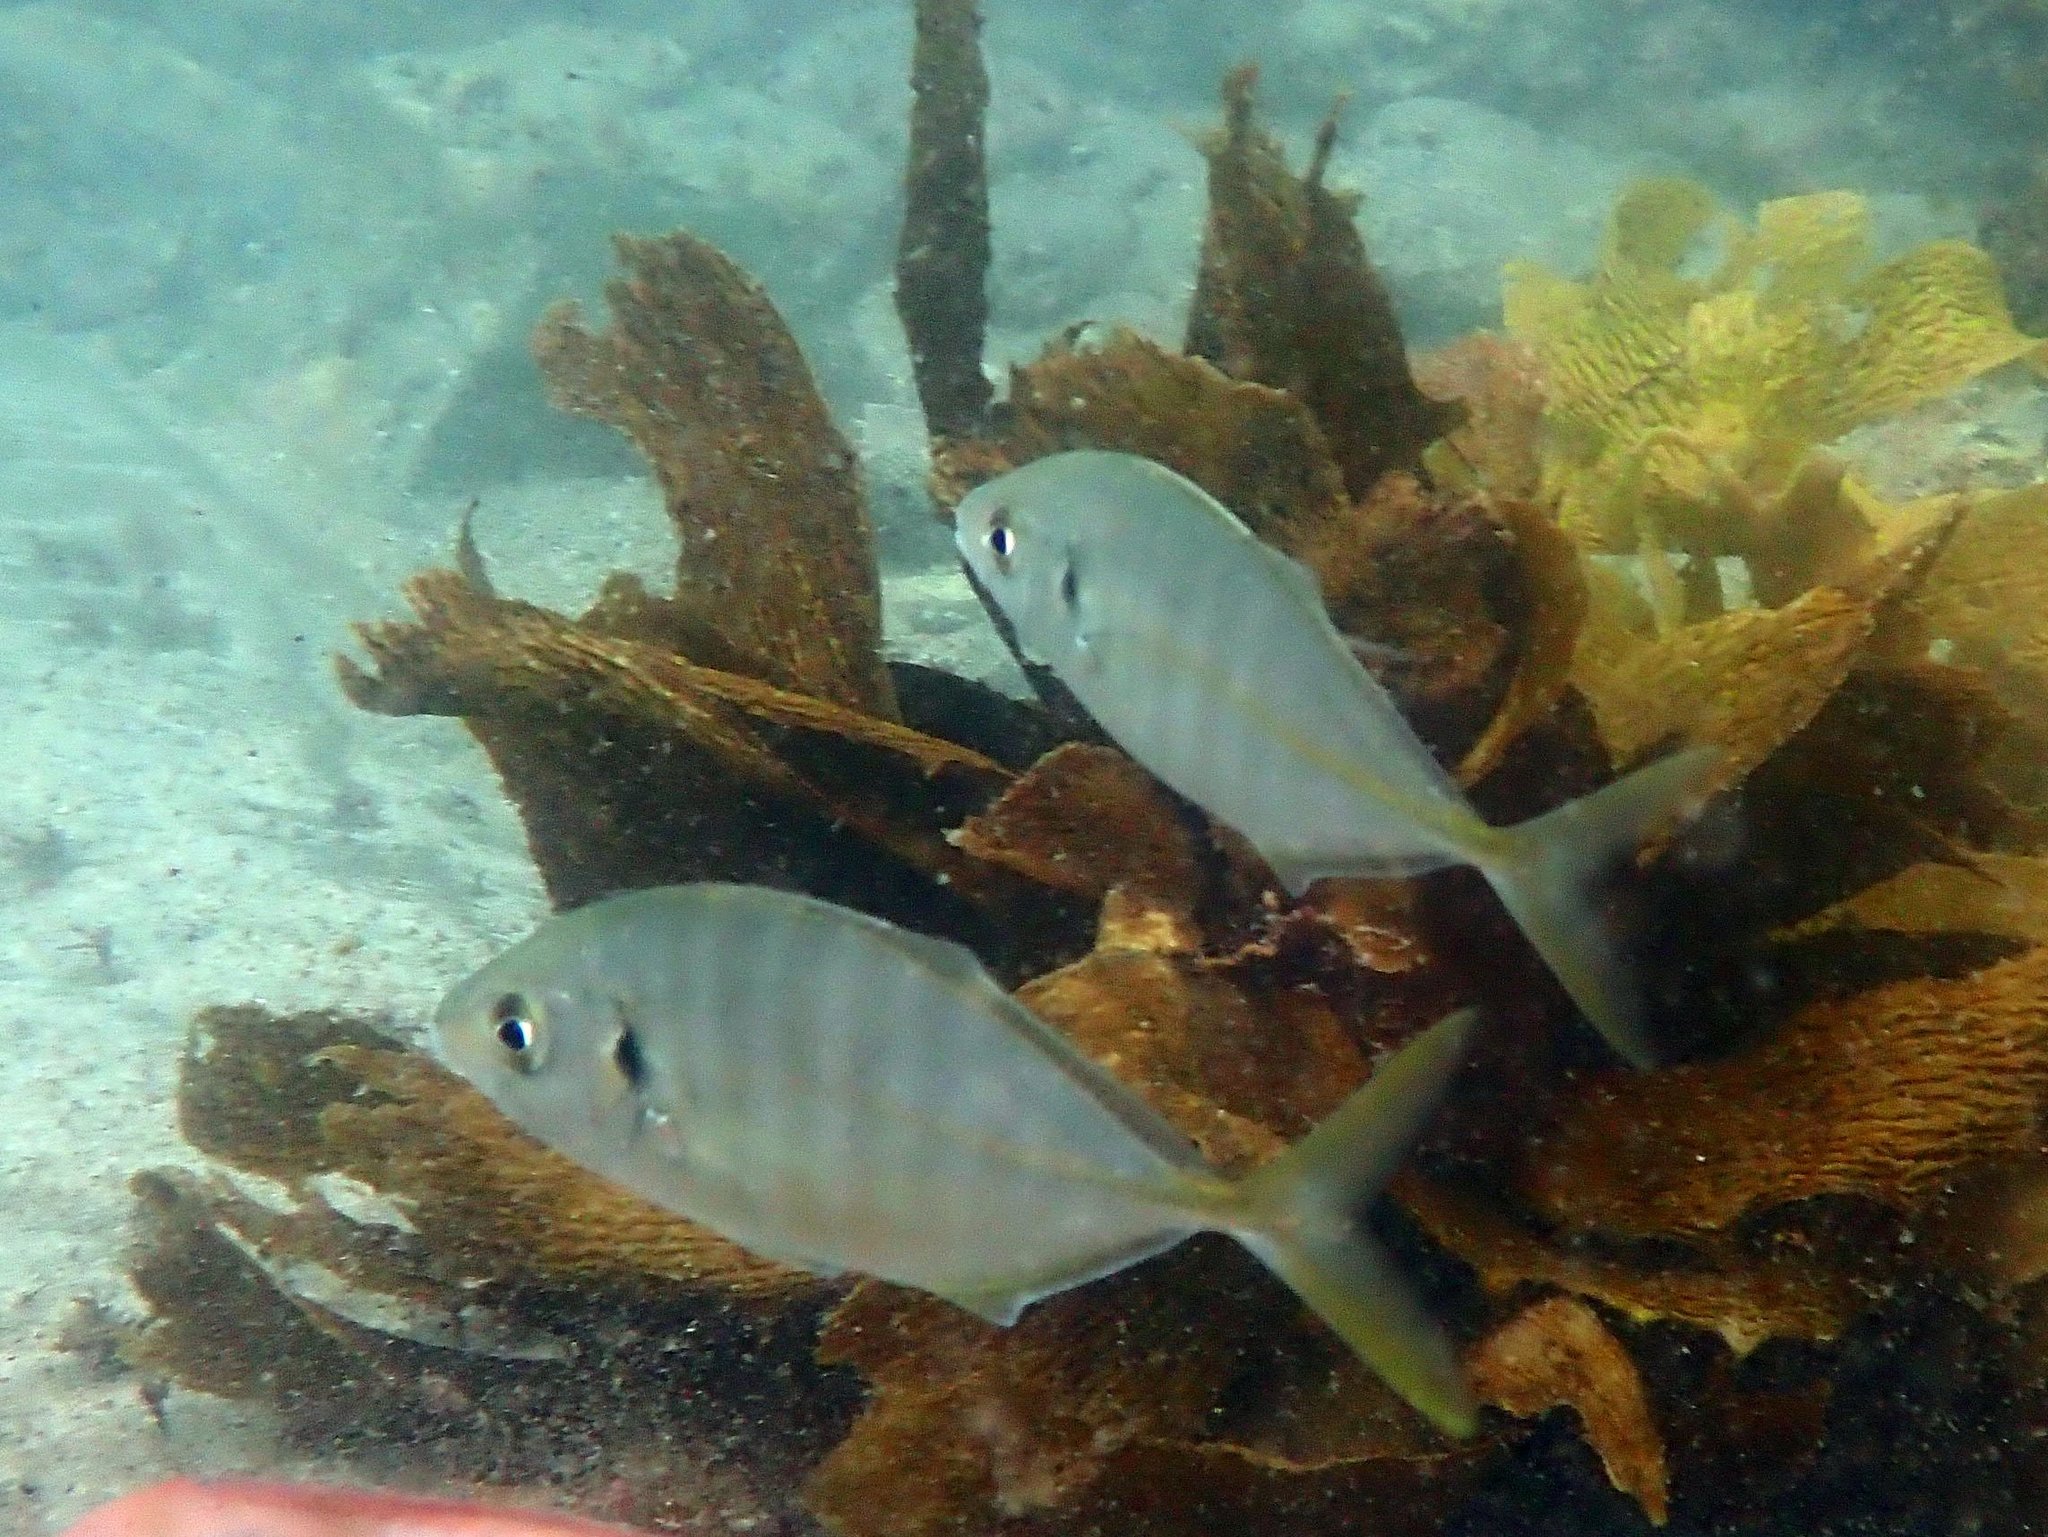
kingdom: Animalia
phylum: Chordata
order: Perciformes
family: Carangidae
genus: Pseudocaranx
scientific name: Pseudocaranx dentex
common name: White trevally
